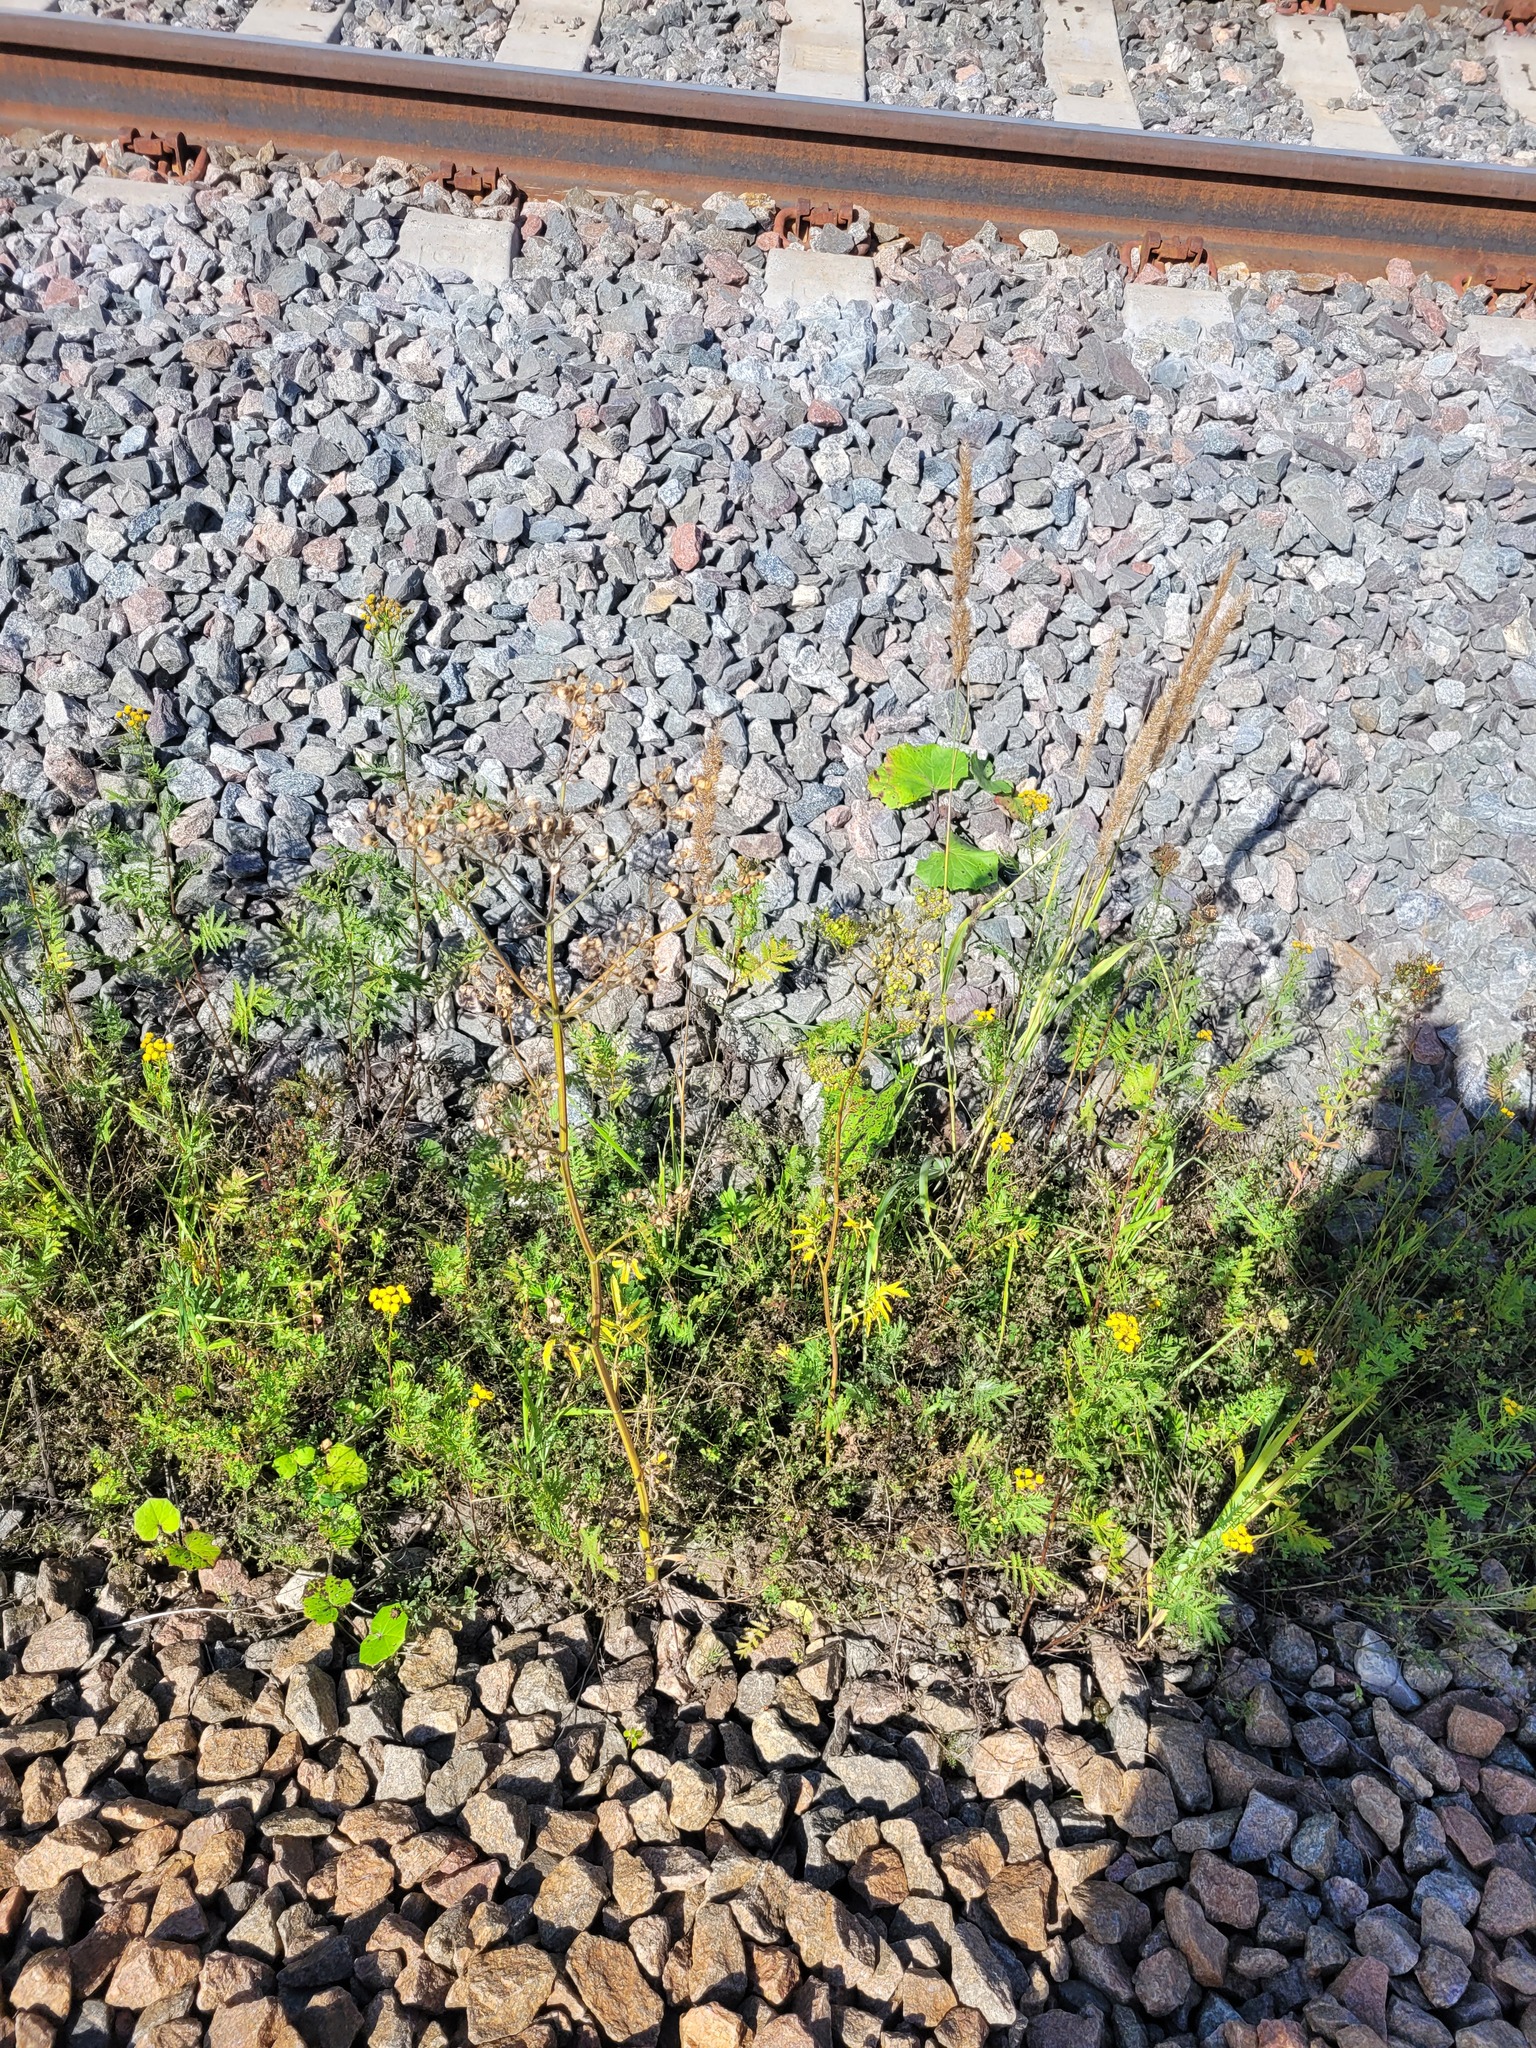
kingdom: Plantae
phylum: Tracheophyta
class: Magnoliopsida
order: Apiales
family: Apiaceae
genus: Pastinaca
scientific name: Pastinaca sativa
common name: Wild parsnip
